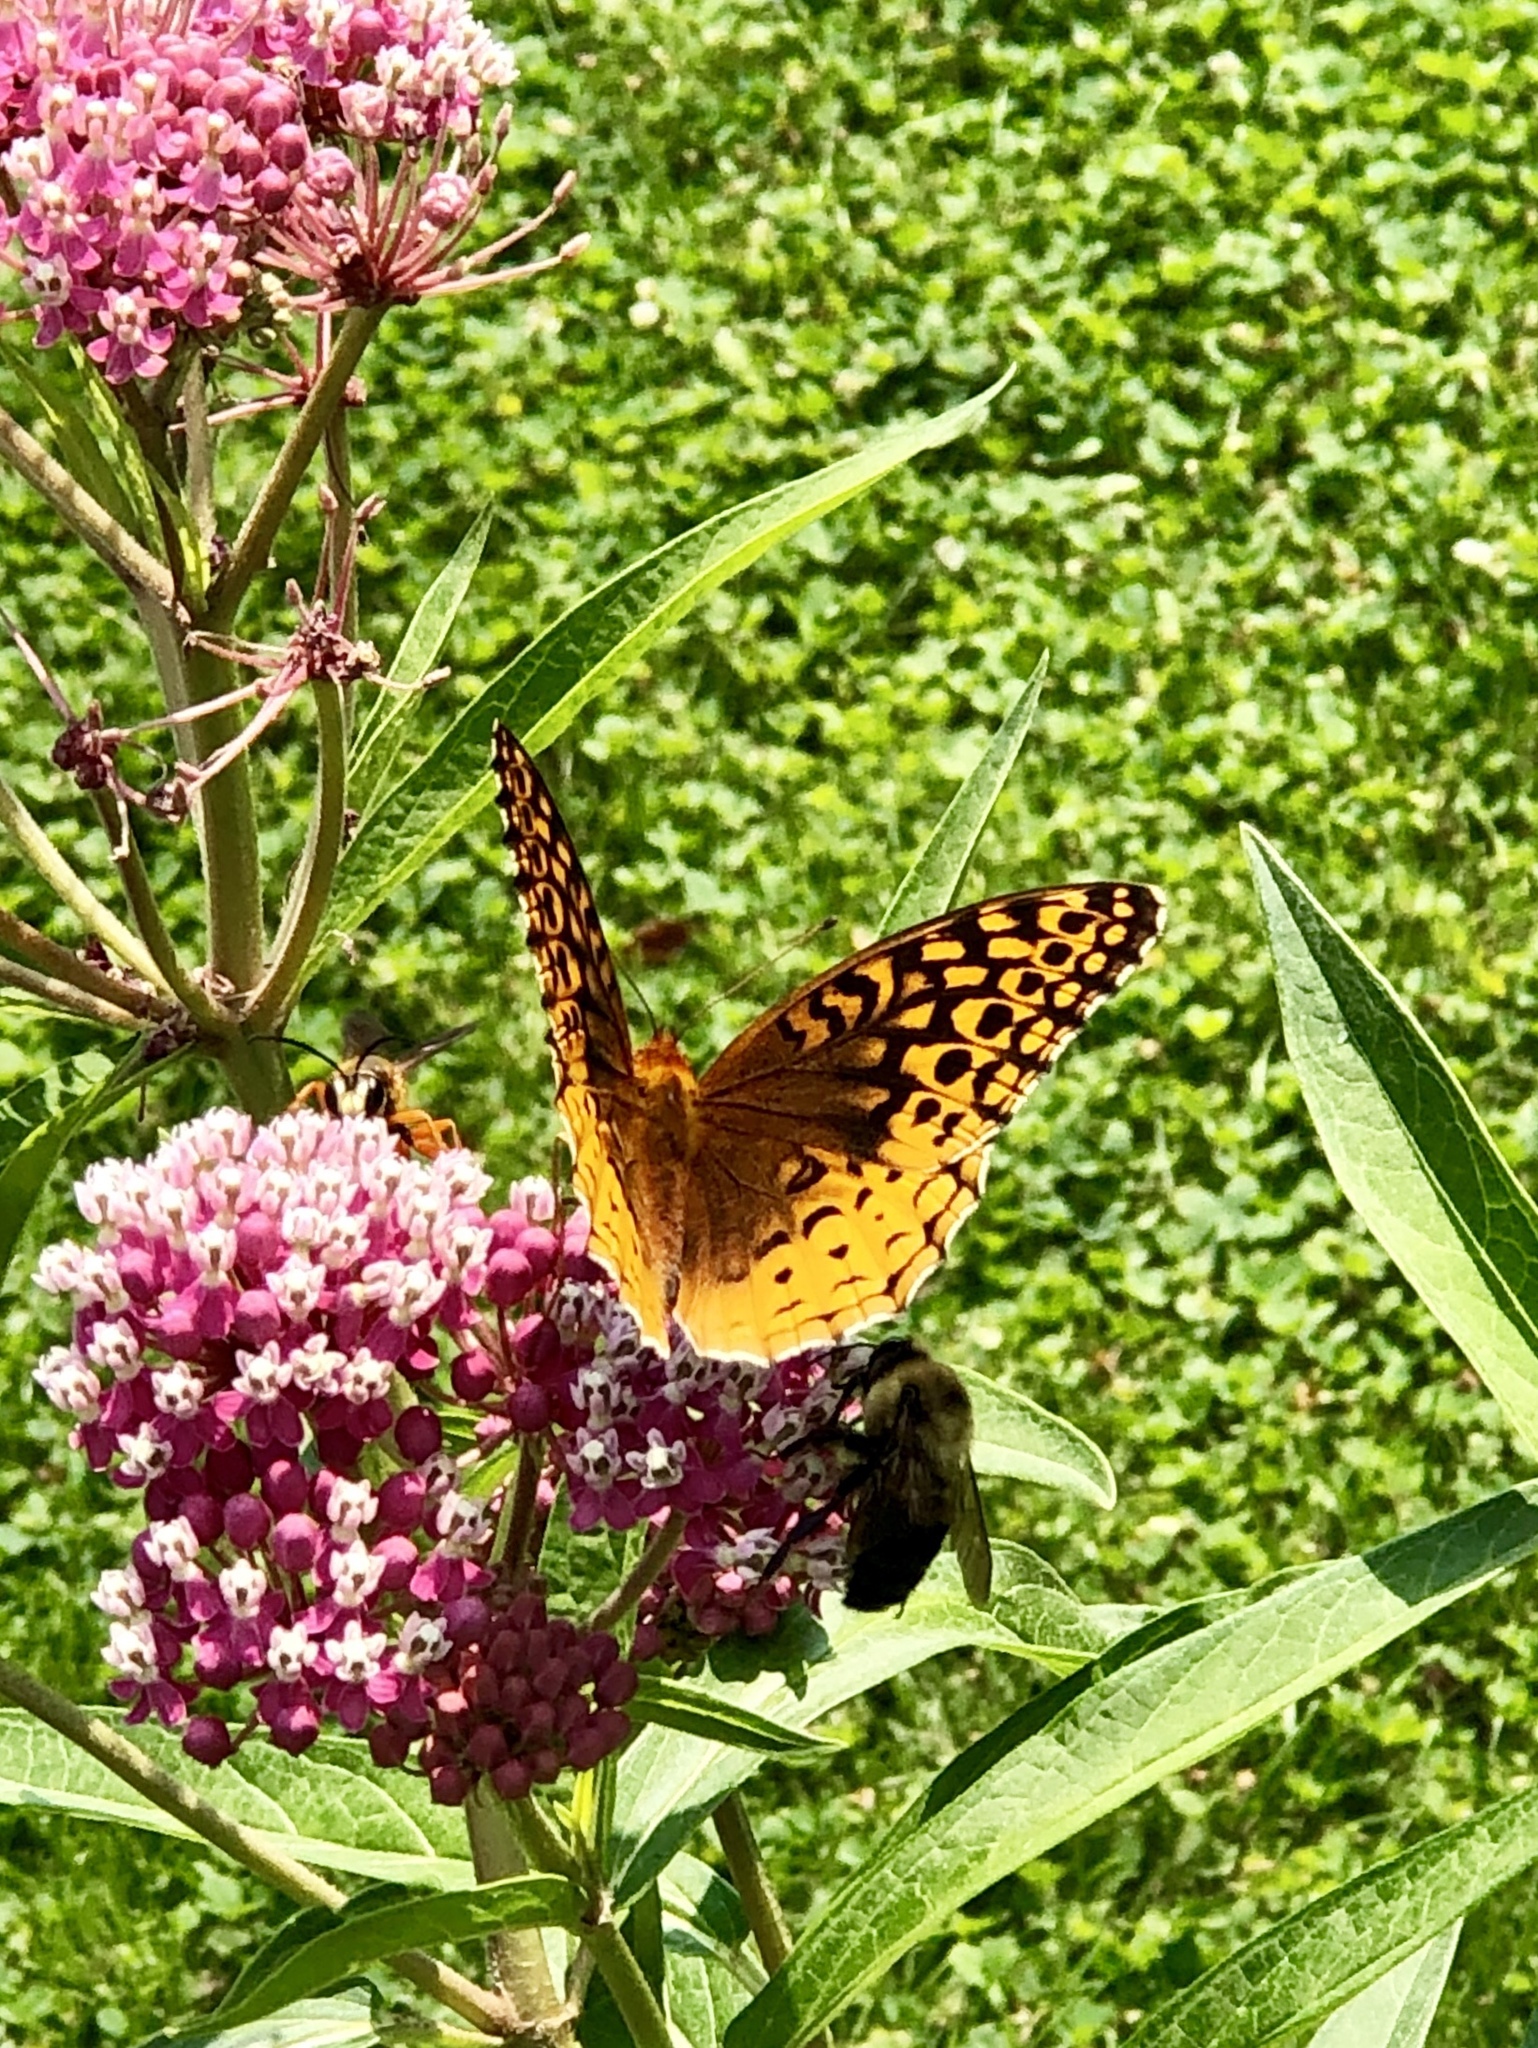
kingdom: Animalia
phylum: Arthropoda
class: Insecta
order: Lepidoptera
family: Nymphalidae
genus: Speyeria
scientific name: Speyeria cybele
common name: Great spangled fritillary
